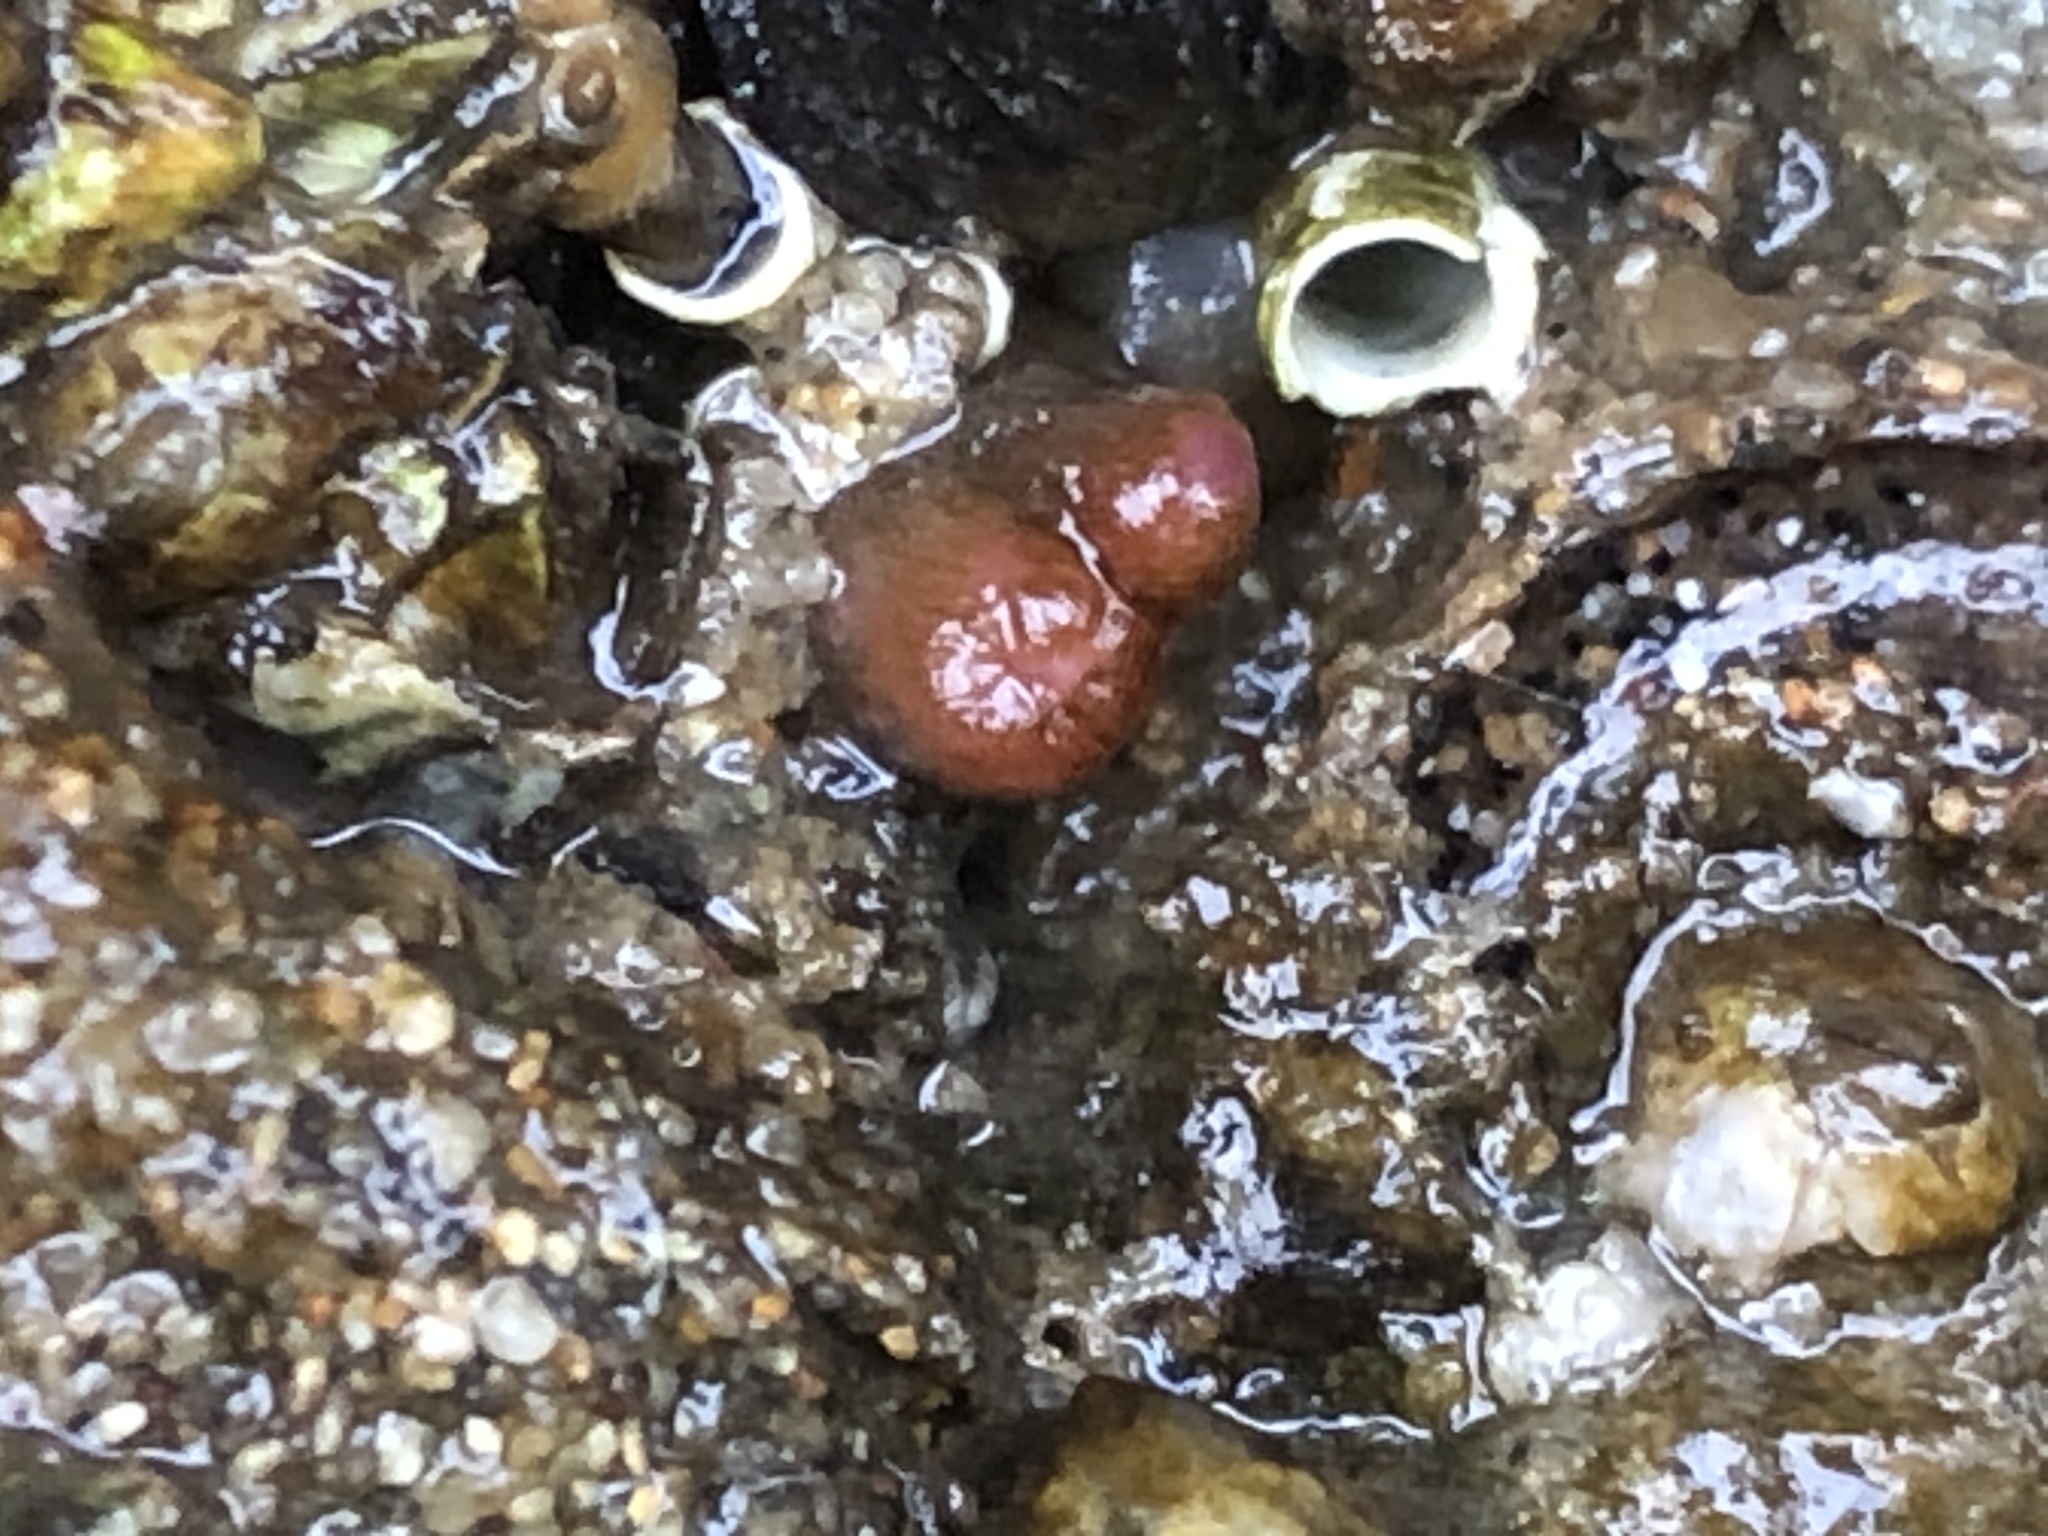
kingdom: Animalia
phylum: Mollusca
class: Bivalvia
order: Adapedonta
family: Hiatellidae
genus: Hiatella
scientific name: Hiatella arctica
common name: Arctic hiatella
